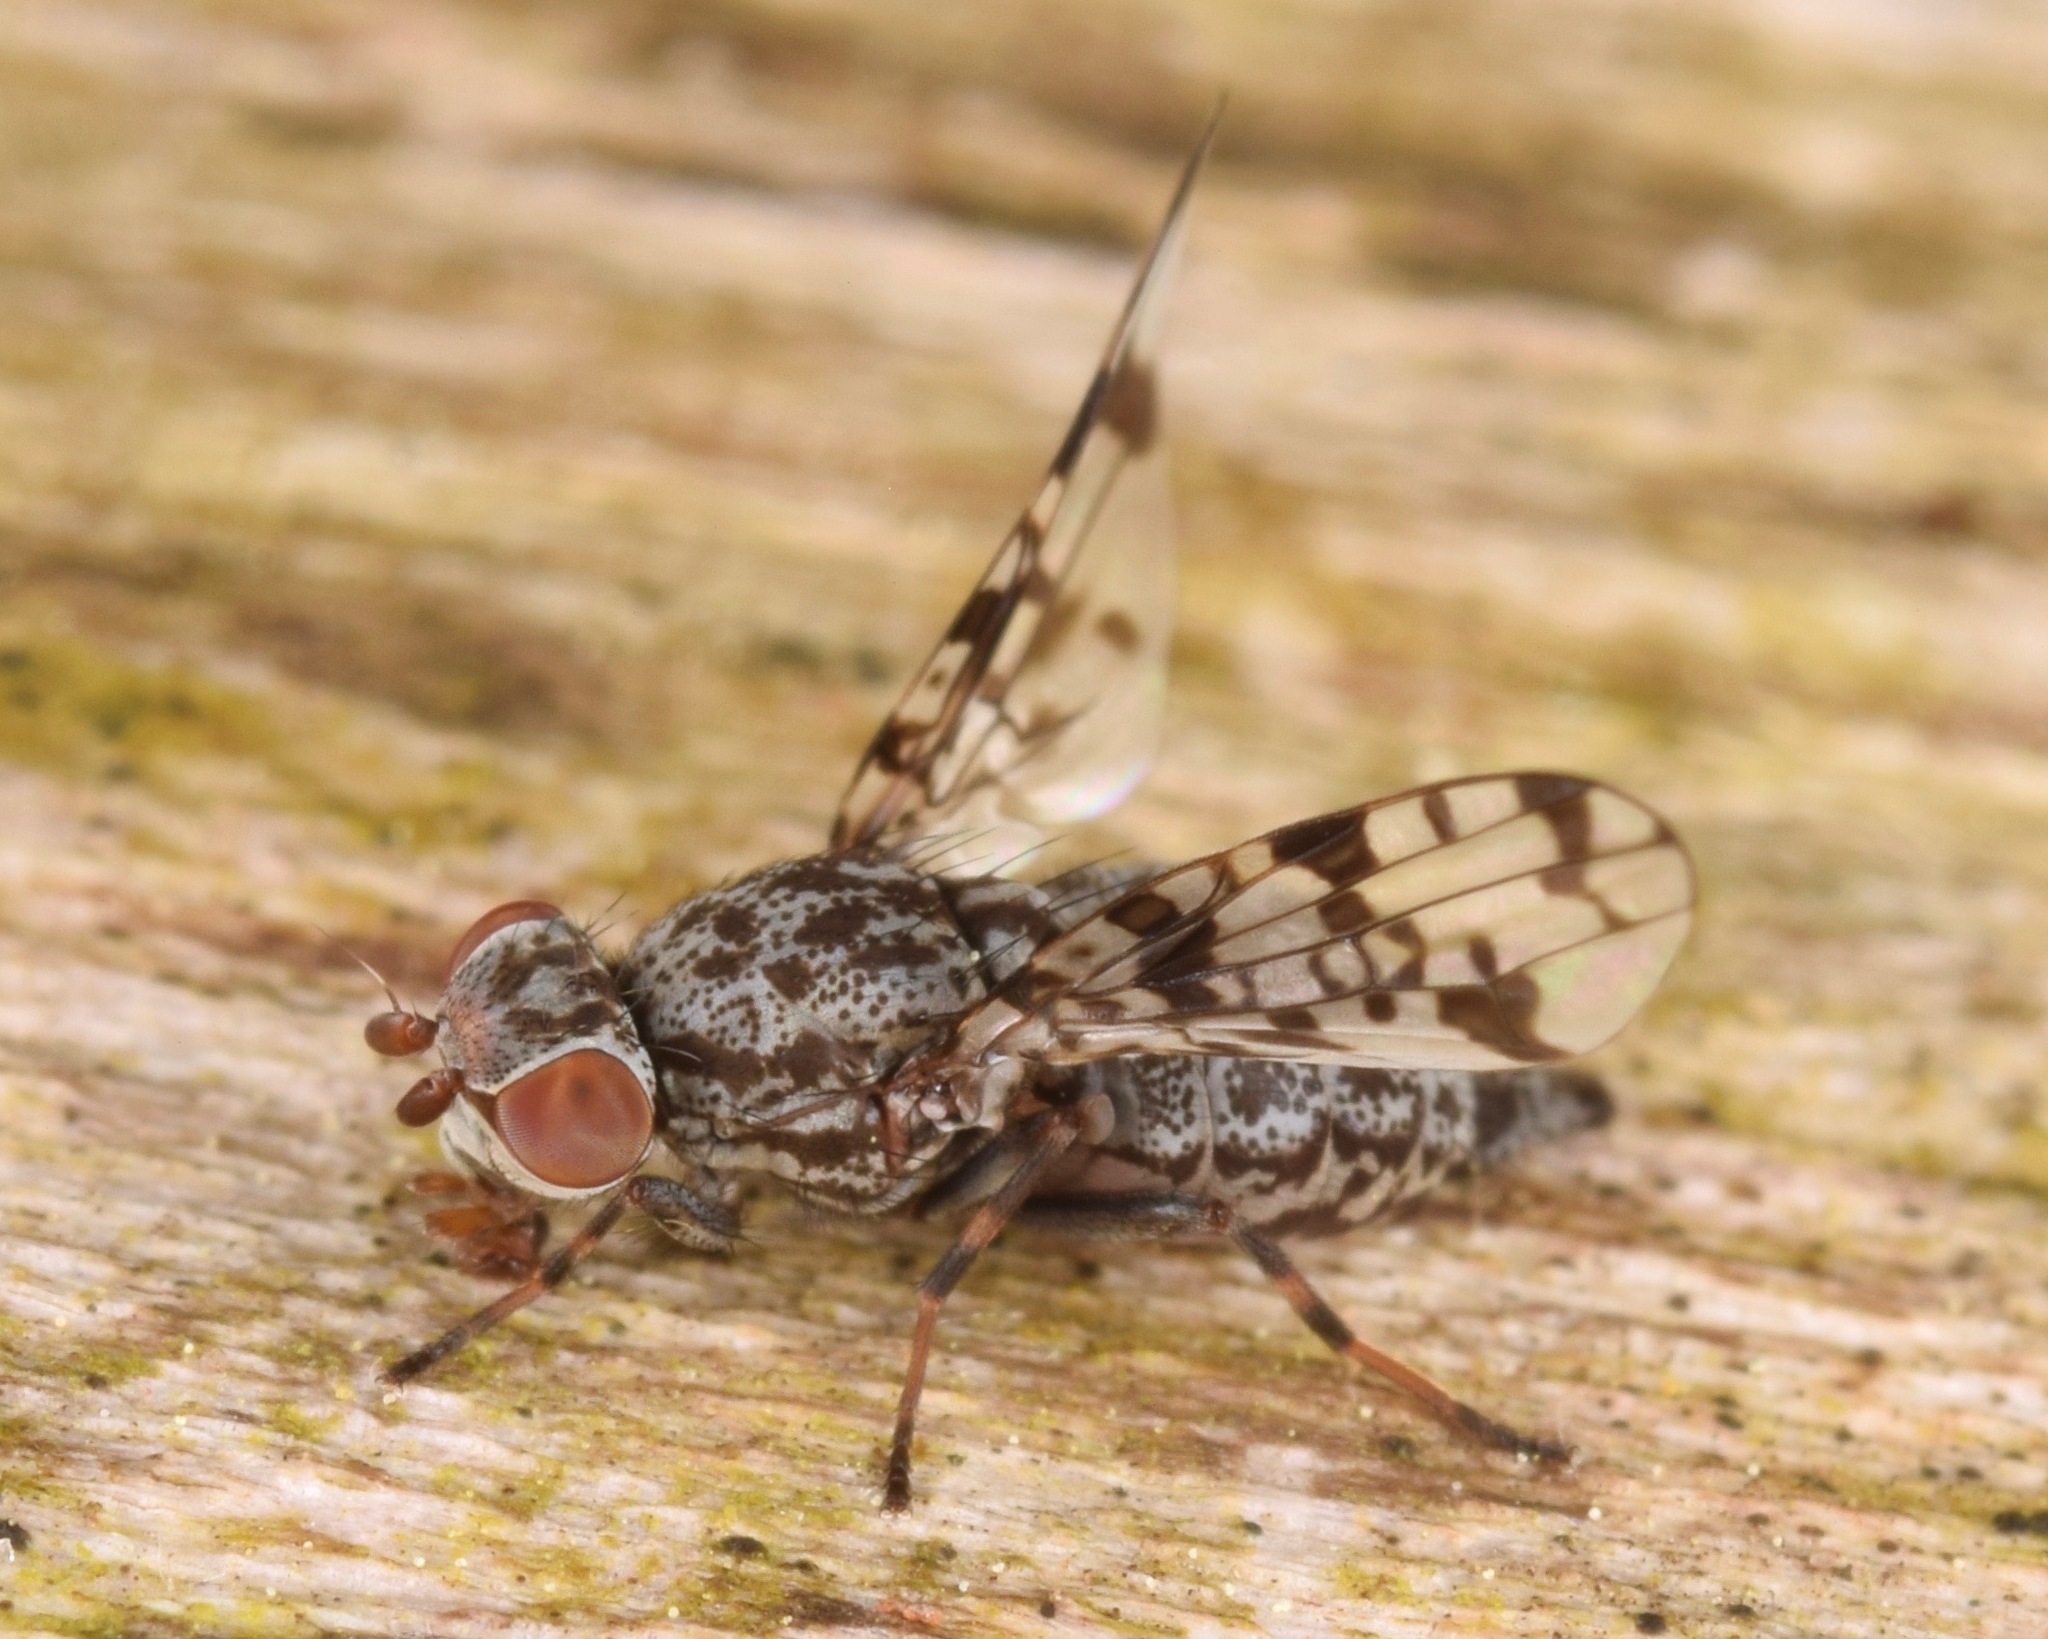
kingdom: Animalia
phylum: Arthropoda
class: Insecta
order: Diptera
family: Ulidiidae
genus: Pseudotephritis
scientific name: Pseudotephritis corticalis
